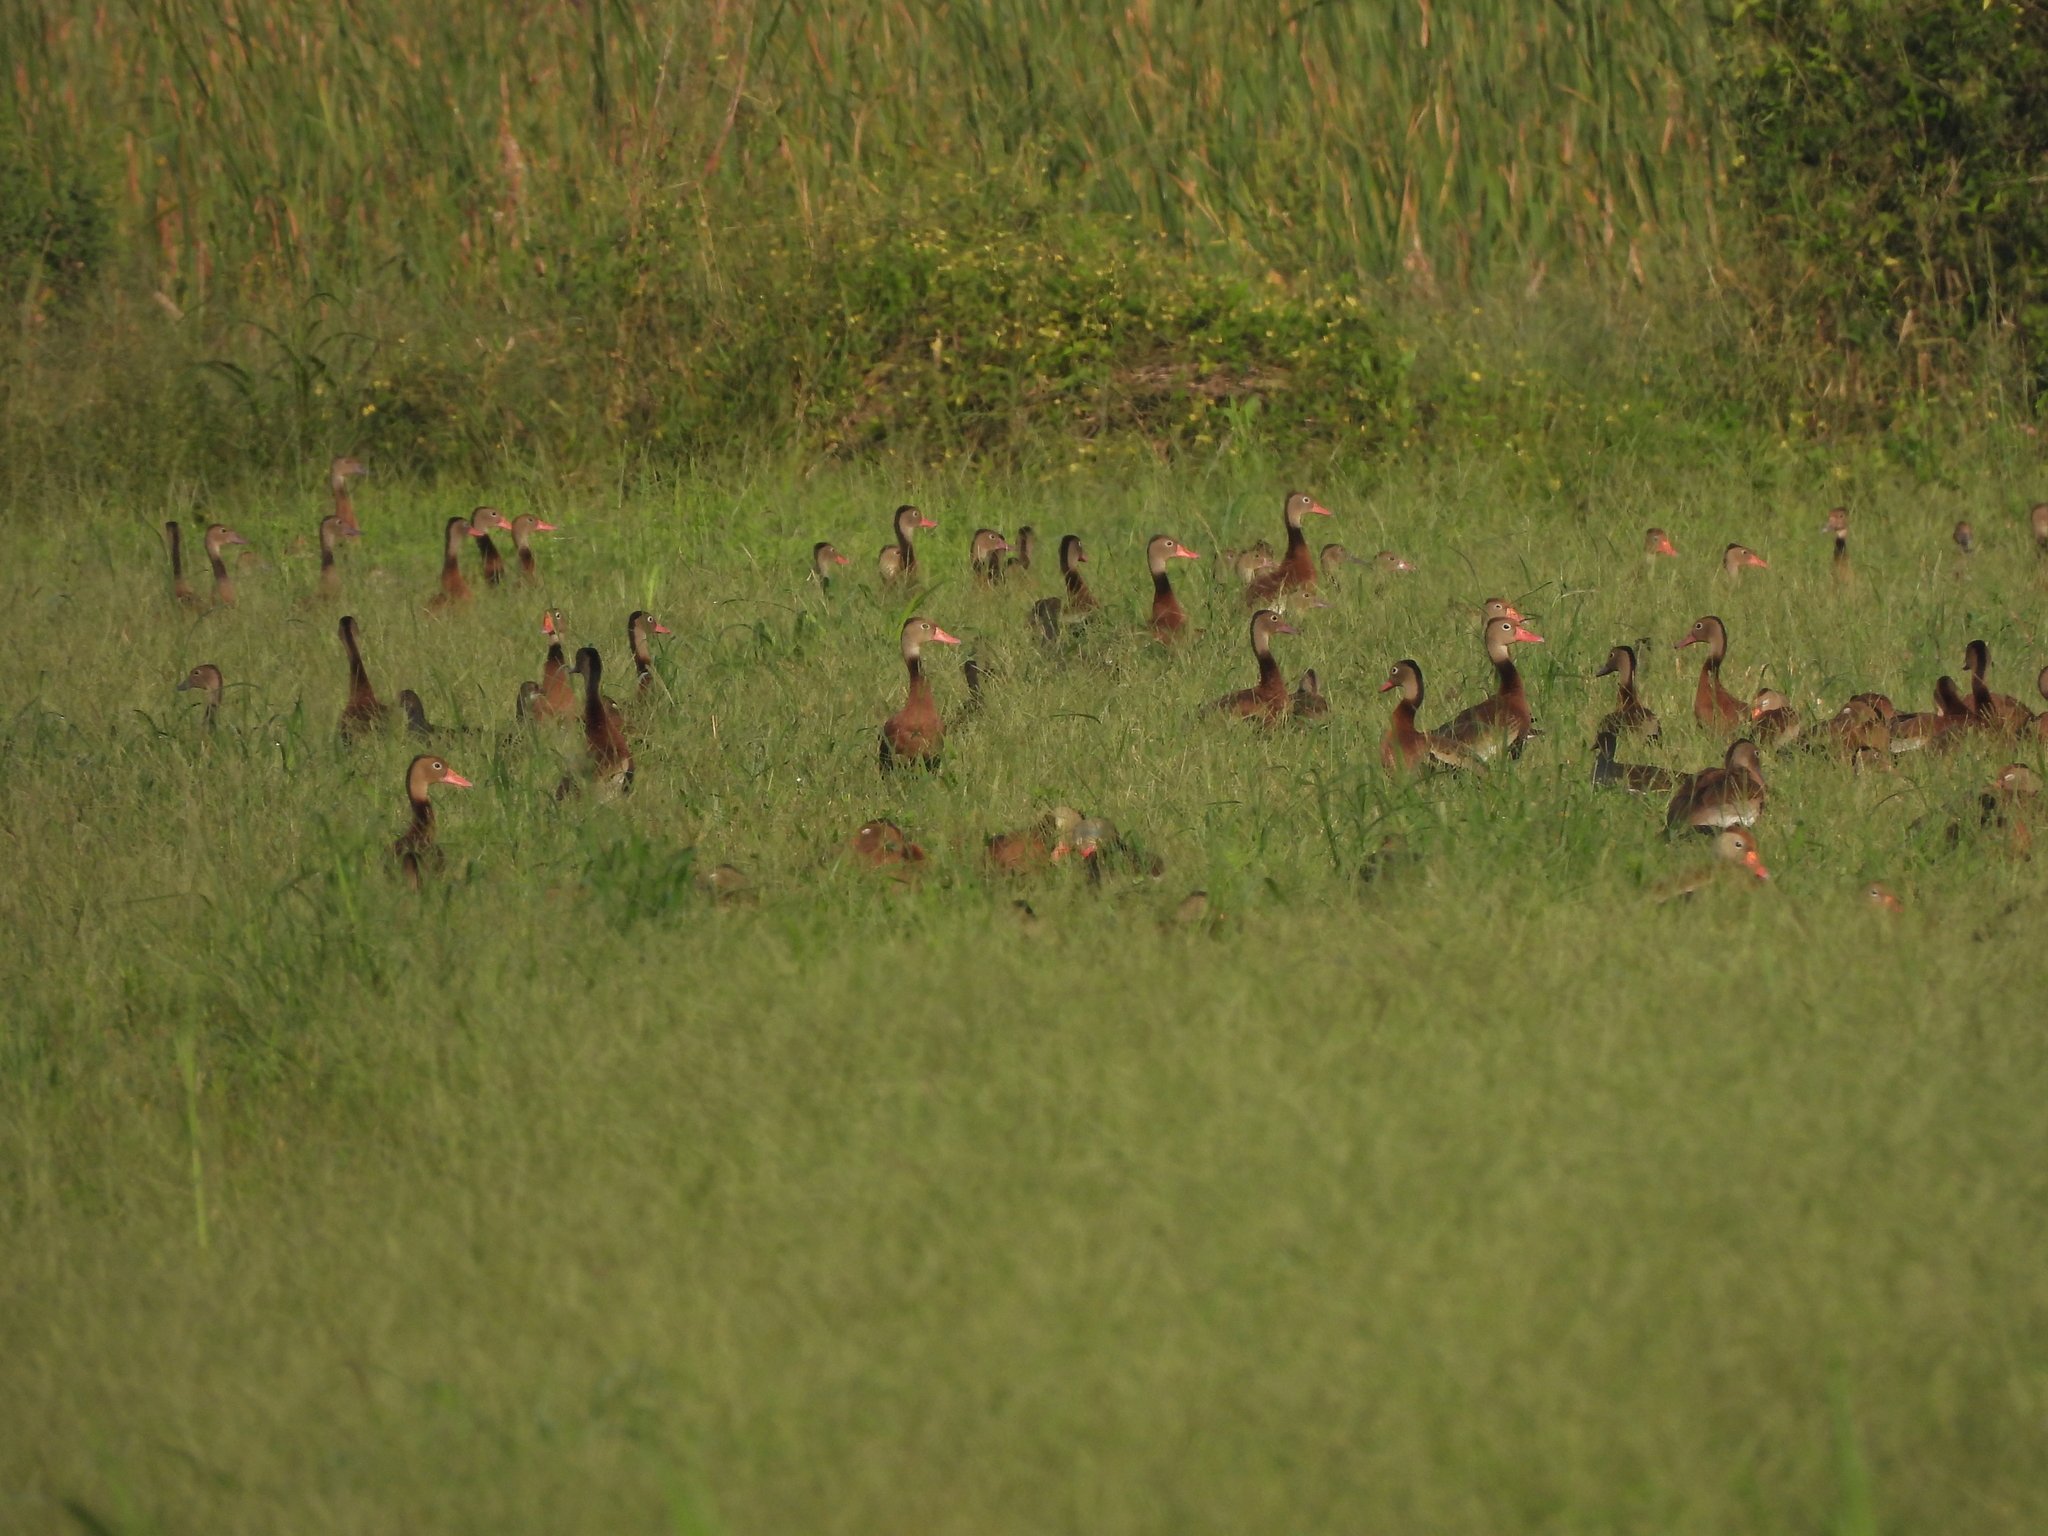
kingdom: Animalia
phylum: Chordata
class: Aves
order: Anseriformes
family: Anatidae
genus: Dendrocygna
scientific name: Dendrocygna autumnalis
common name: Black-bellied whistling duck
